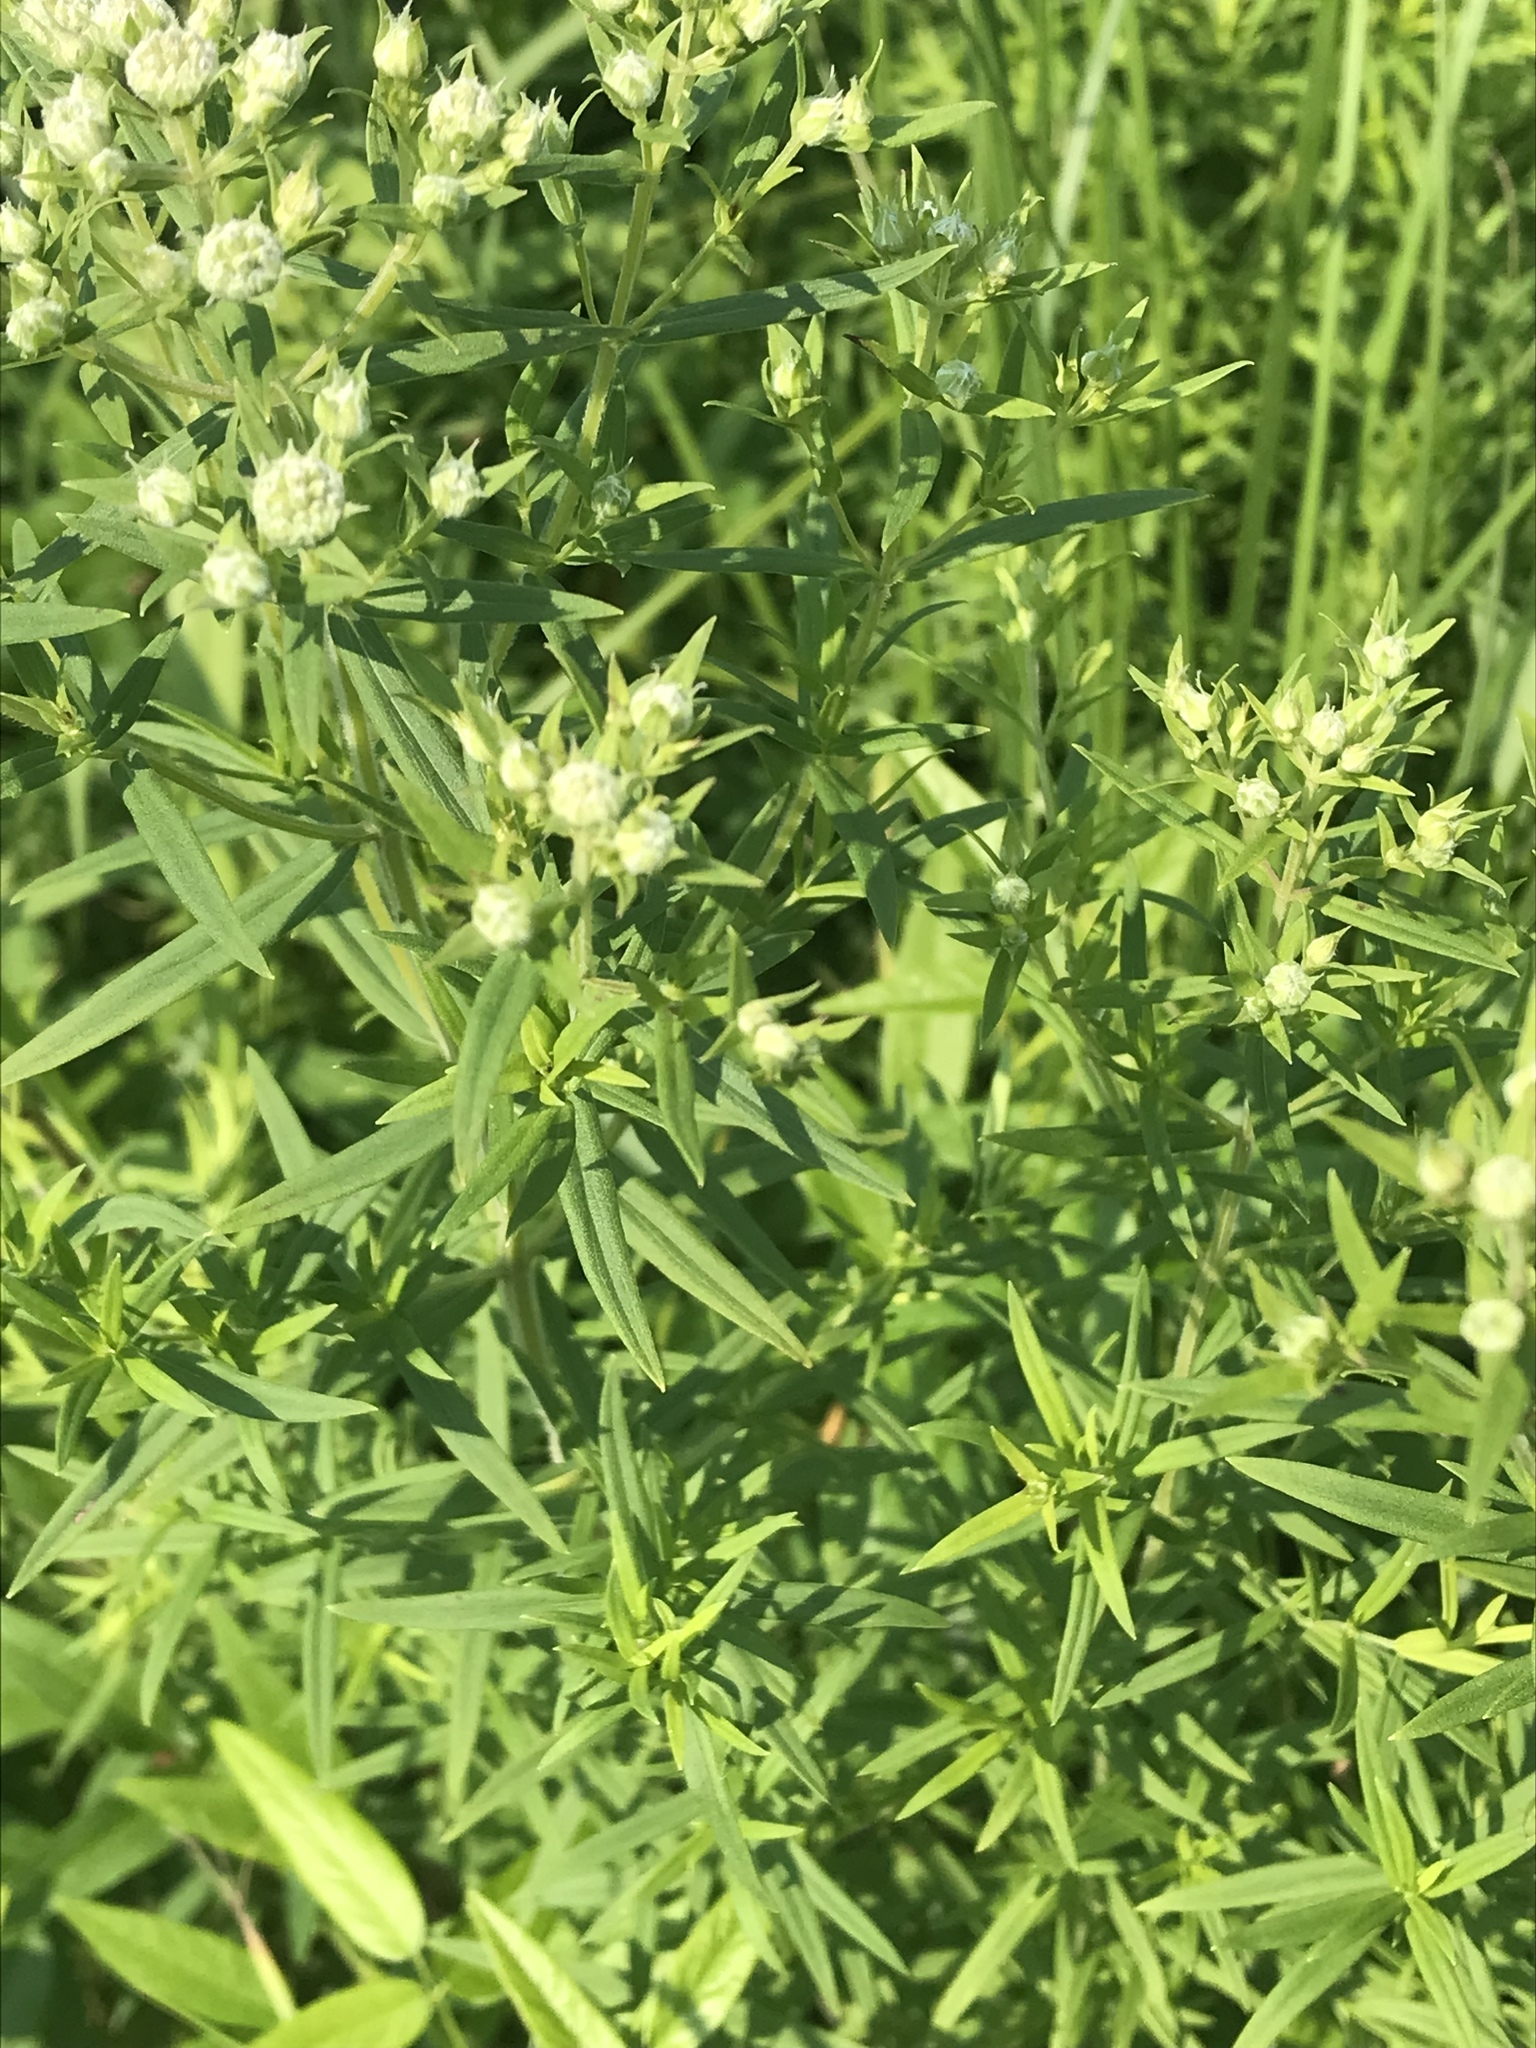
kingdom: Plantae
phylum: Tracheophyta
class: Magnoliopsida
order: Lamiales
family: Lamiaceae
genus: Pycnanthemum
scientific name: Pycnanthemum tenuifolium
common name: Narrow-leaf mountain-mint
